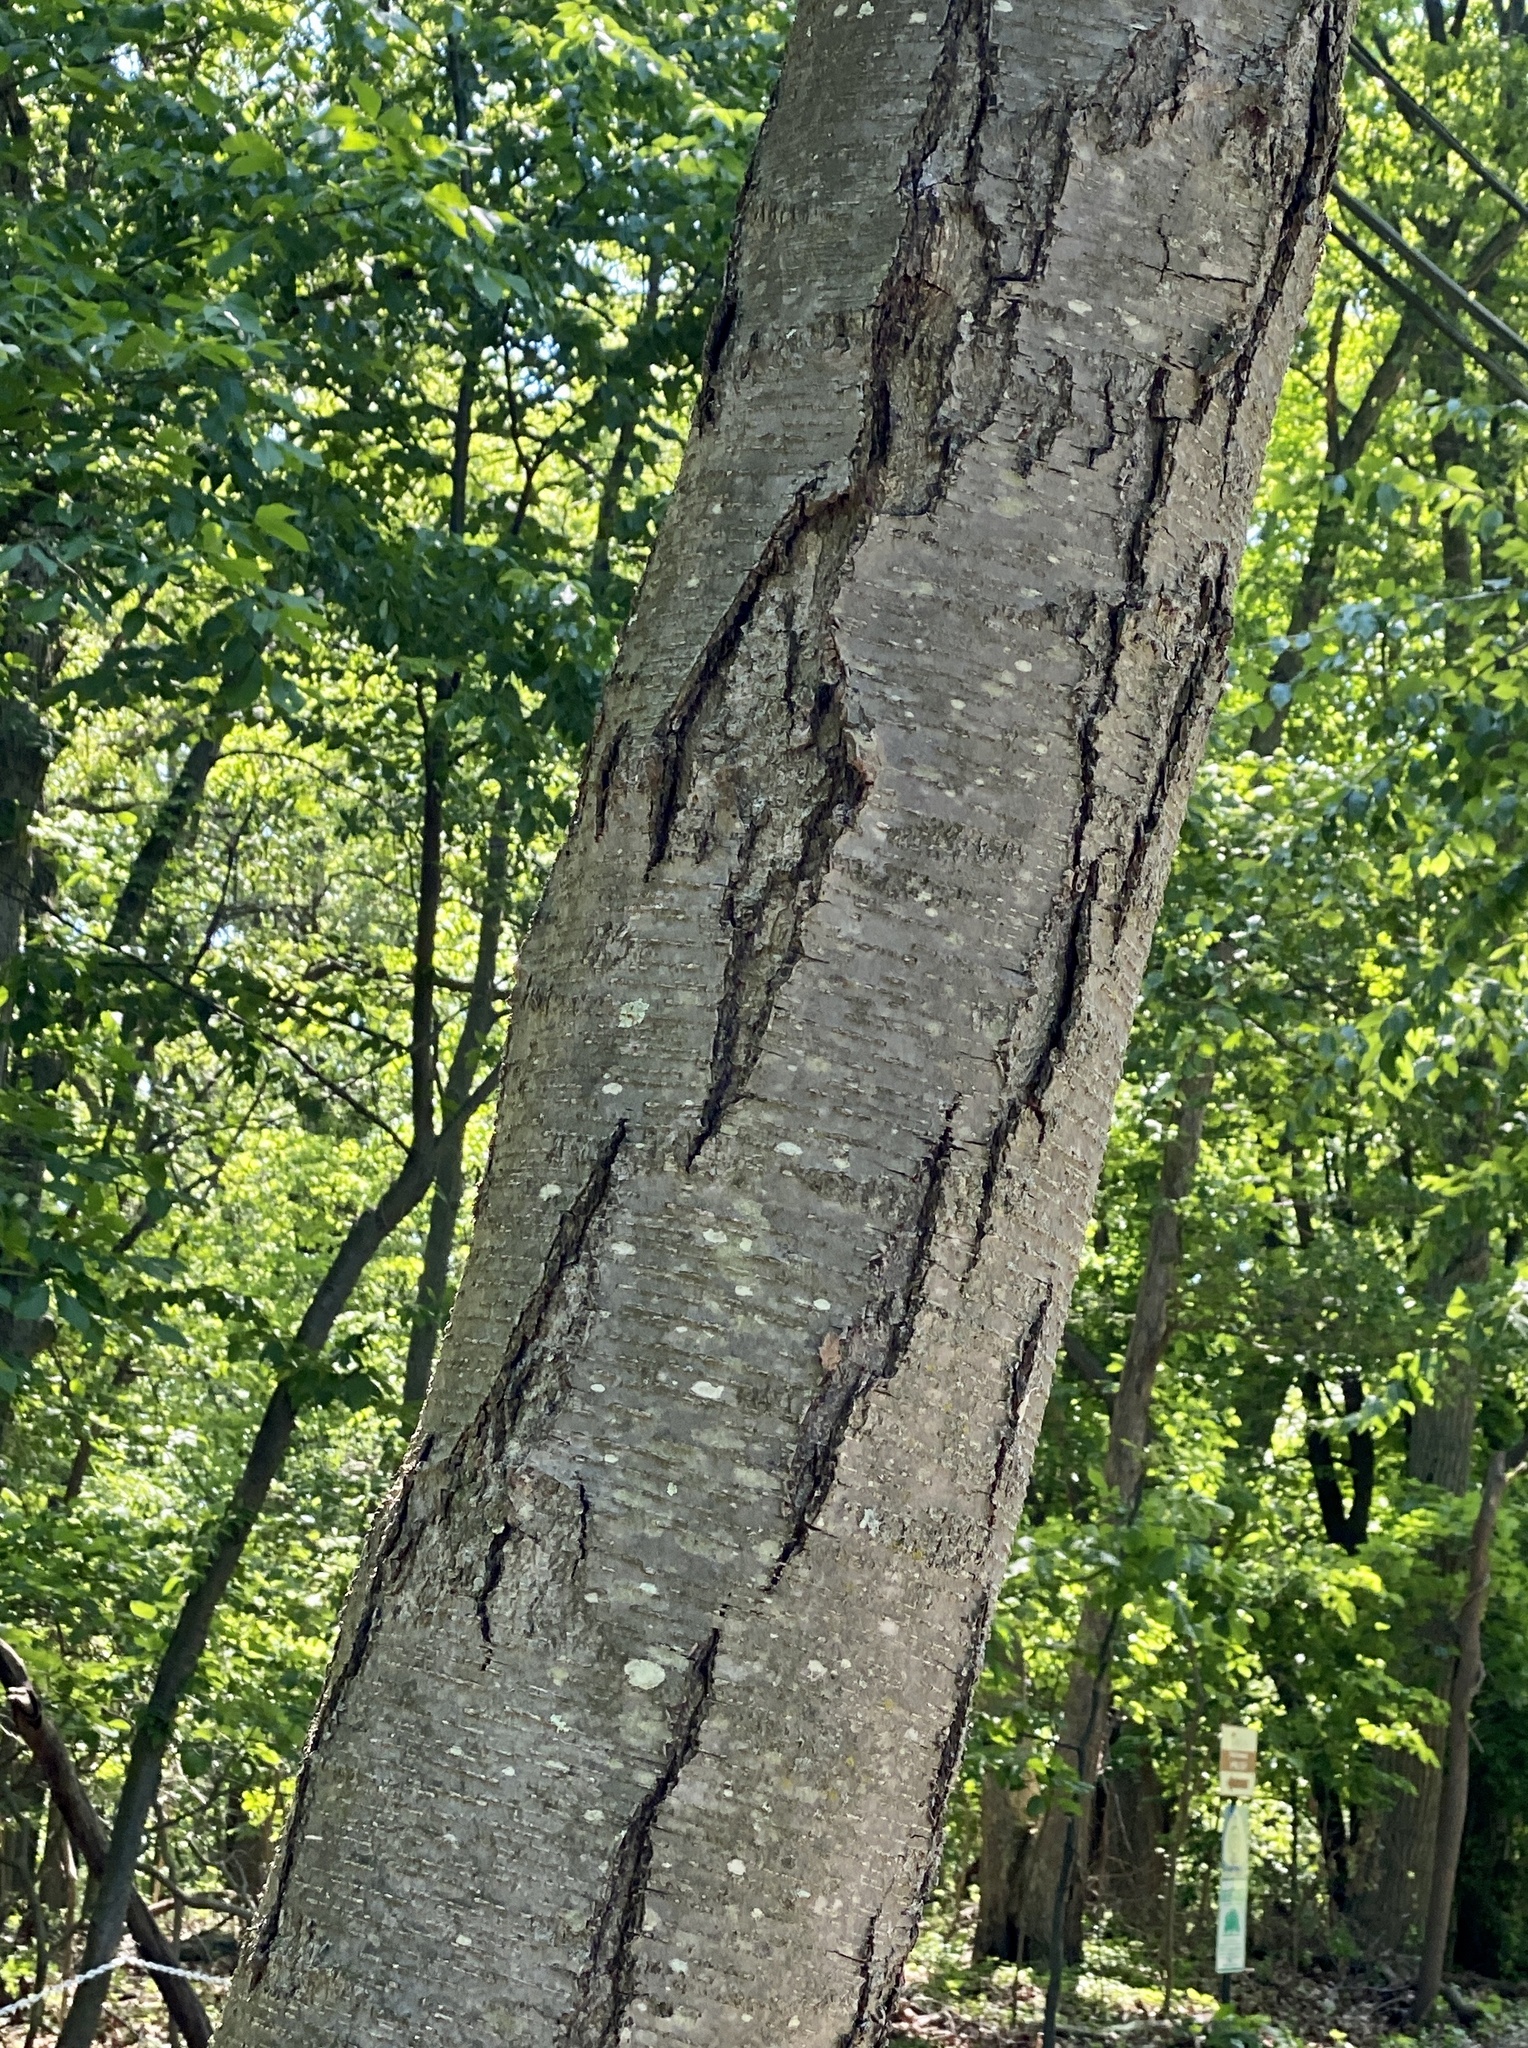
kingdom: Plantae
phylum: Tracheophyta
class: Magnoliopsida
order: Fagales
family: Betulaceae
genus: Betula
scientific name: Betula lenta
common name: Black birch
